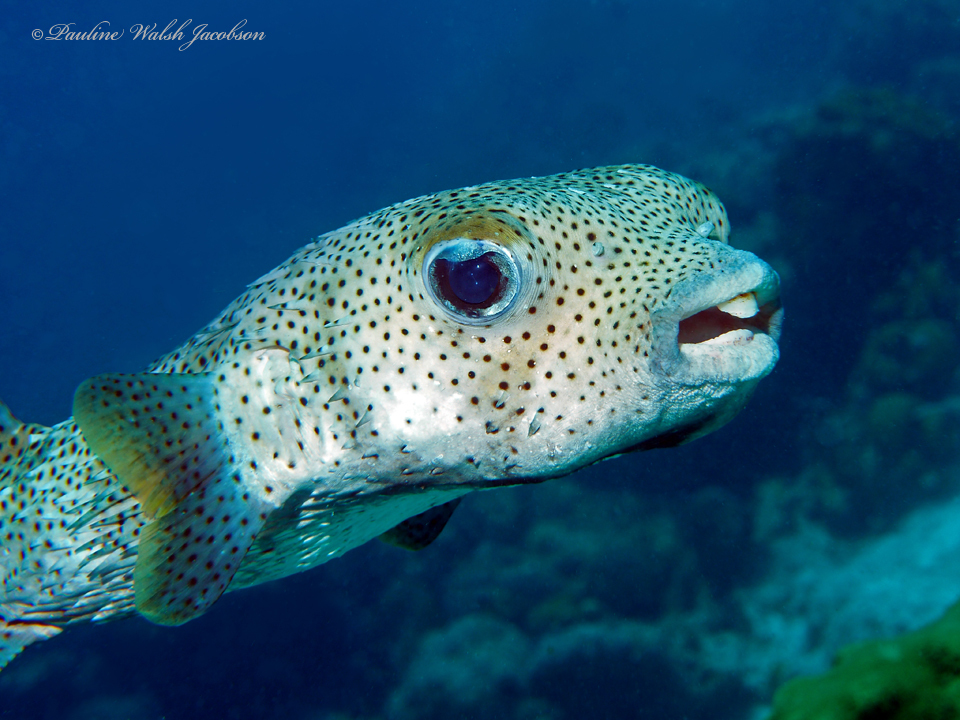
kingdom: Animalia
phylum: Chordata
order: Tetraodontiformes
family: Diodontidae
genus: Diodon
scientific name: Diodon hystrix
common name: Giant porcupinefish
